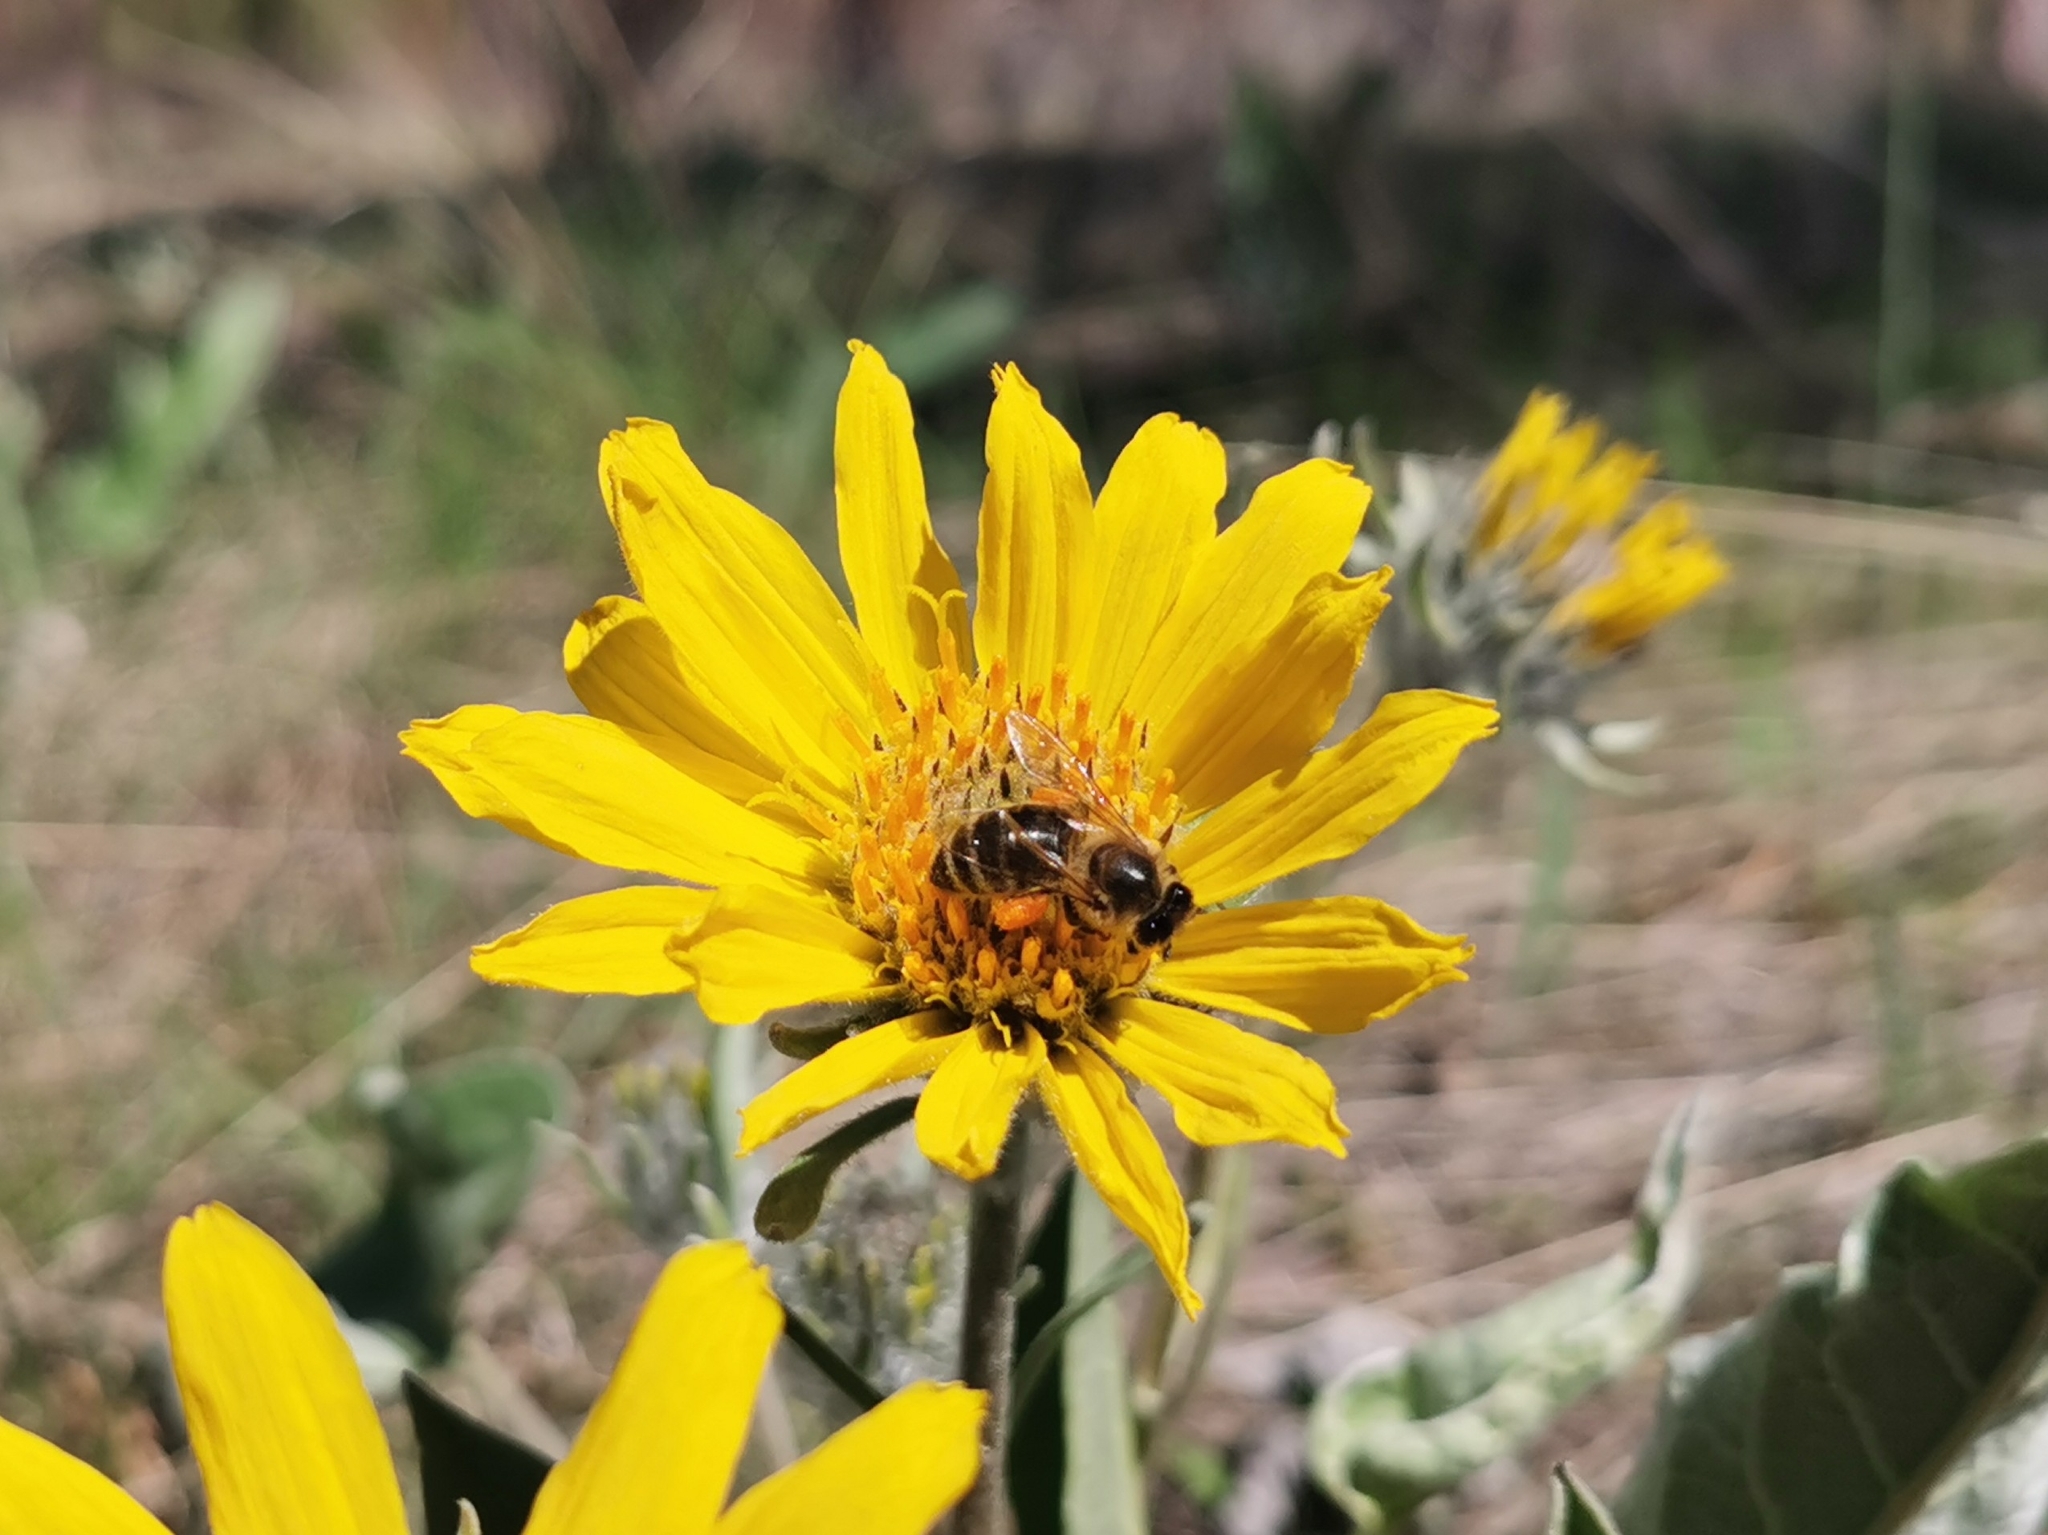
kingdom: Animalia
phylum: Arthropoda
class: Insecta
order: Hymenoptera
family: Apidae
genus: Apis
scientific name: Apis mellifera
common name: Honey bee
